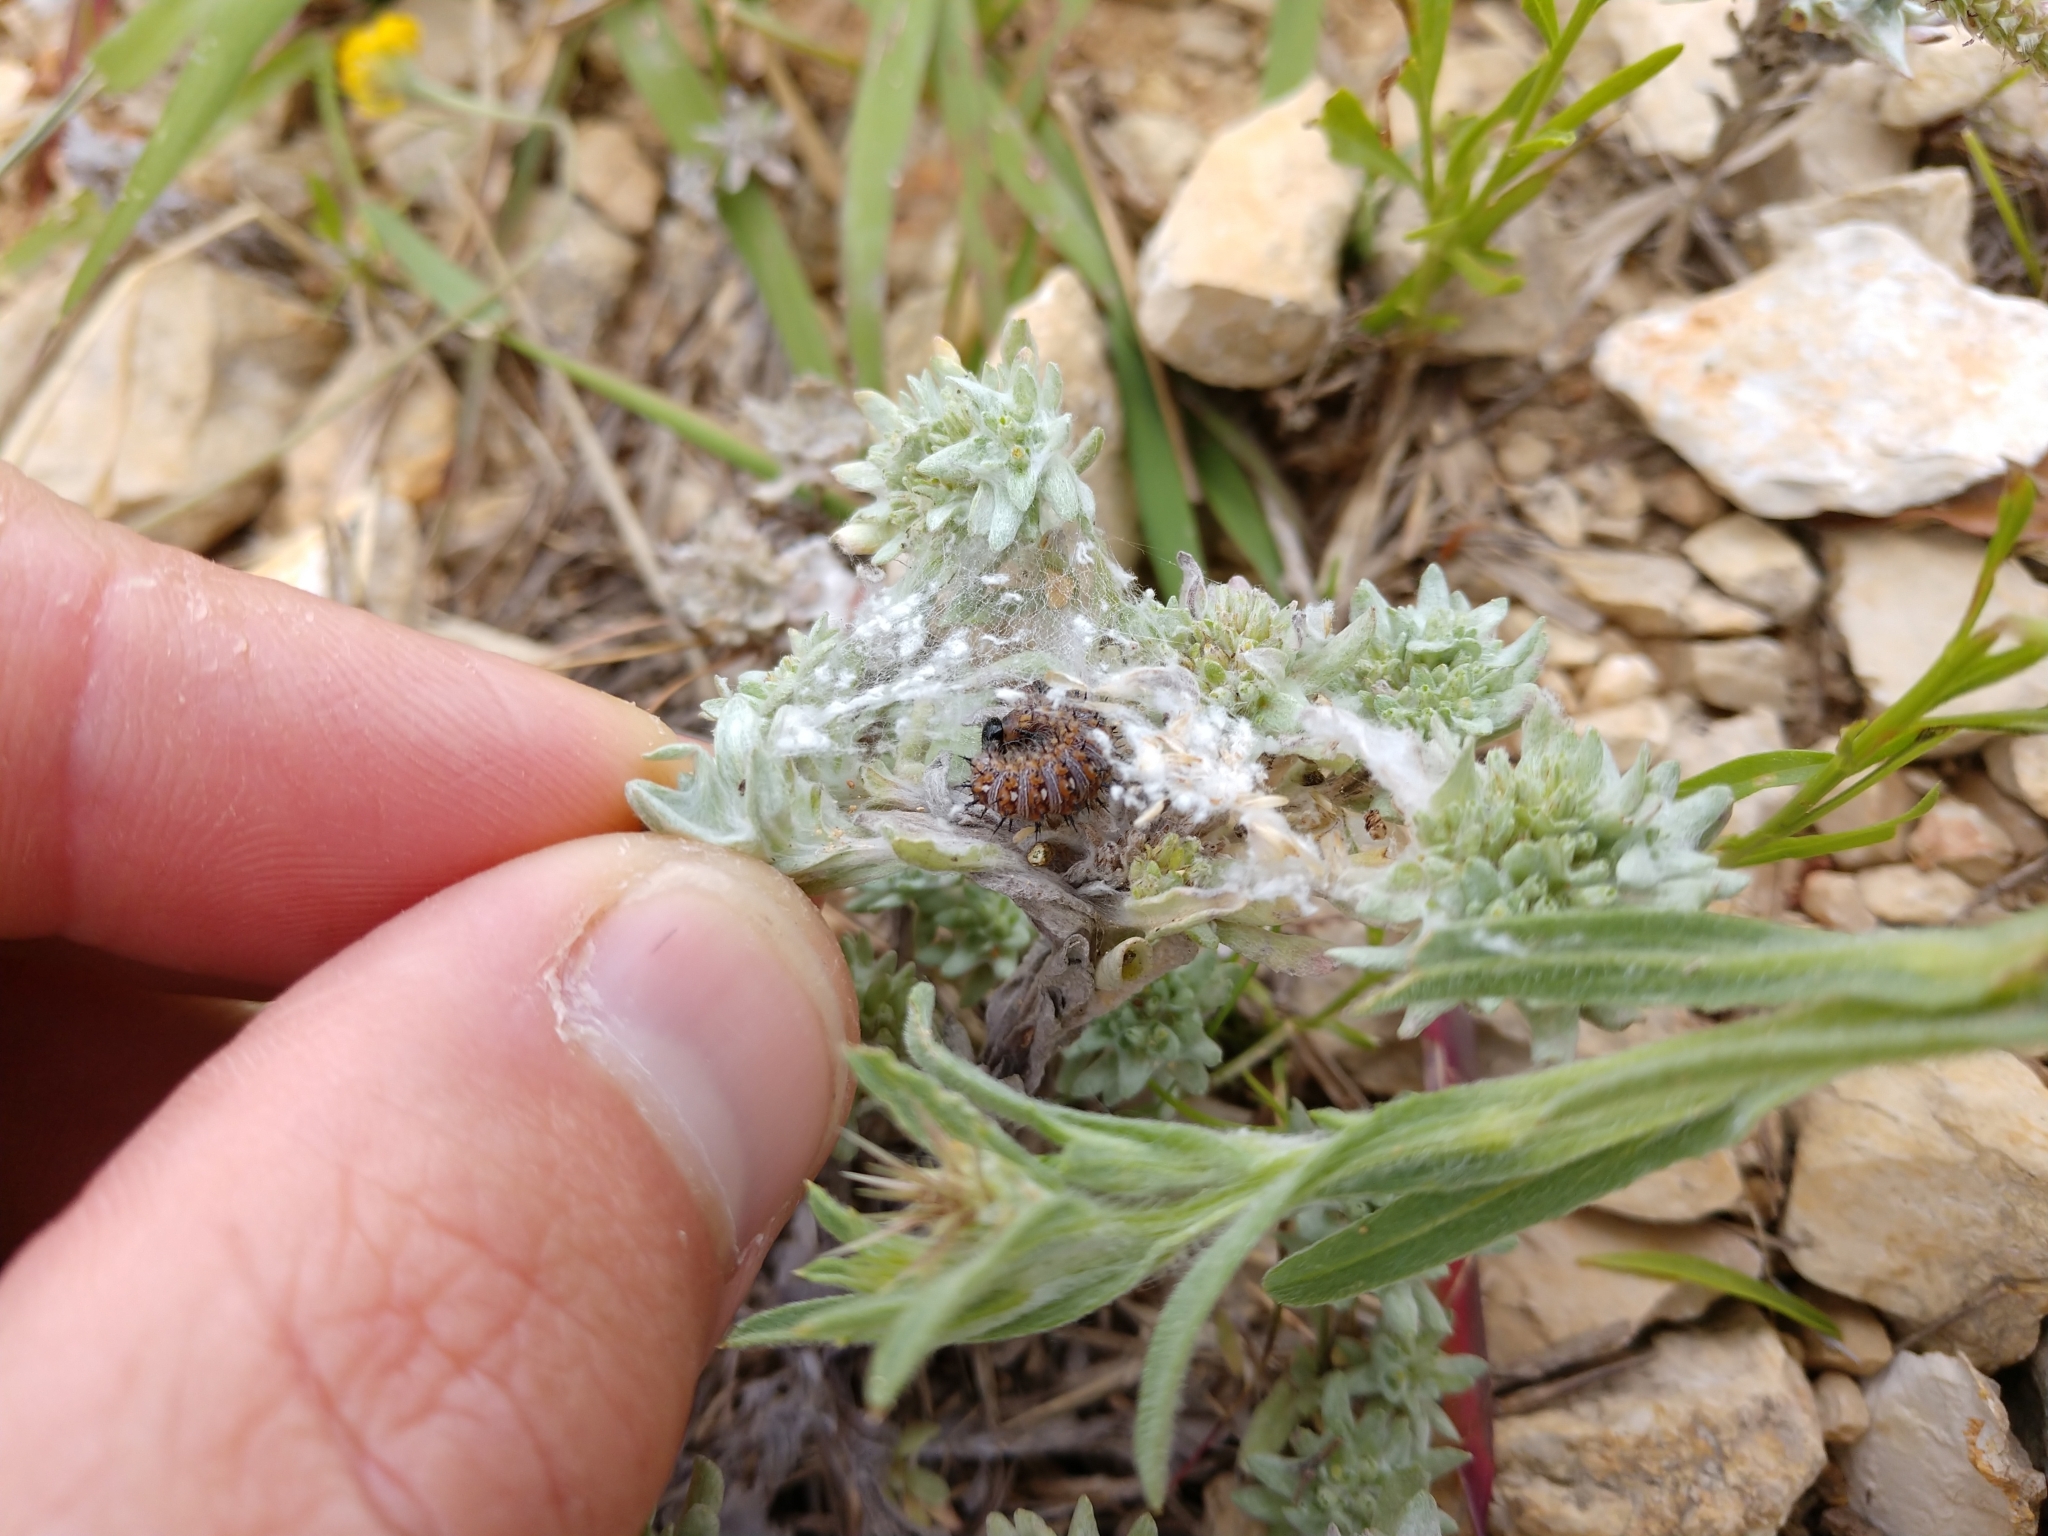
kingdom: Animalia
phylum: Arthropoda
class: Insecta
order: Lepidoptera
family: Nymphalidae
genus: Vanessa
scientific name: Vanessa virginiensis
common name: American lady
